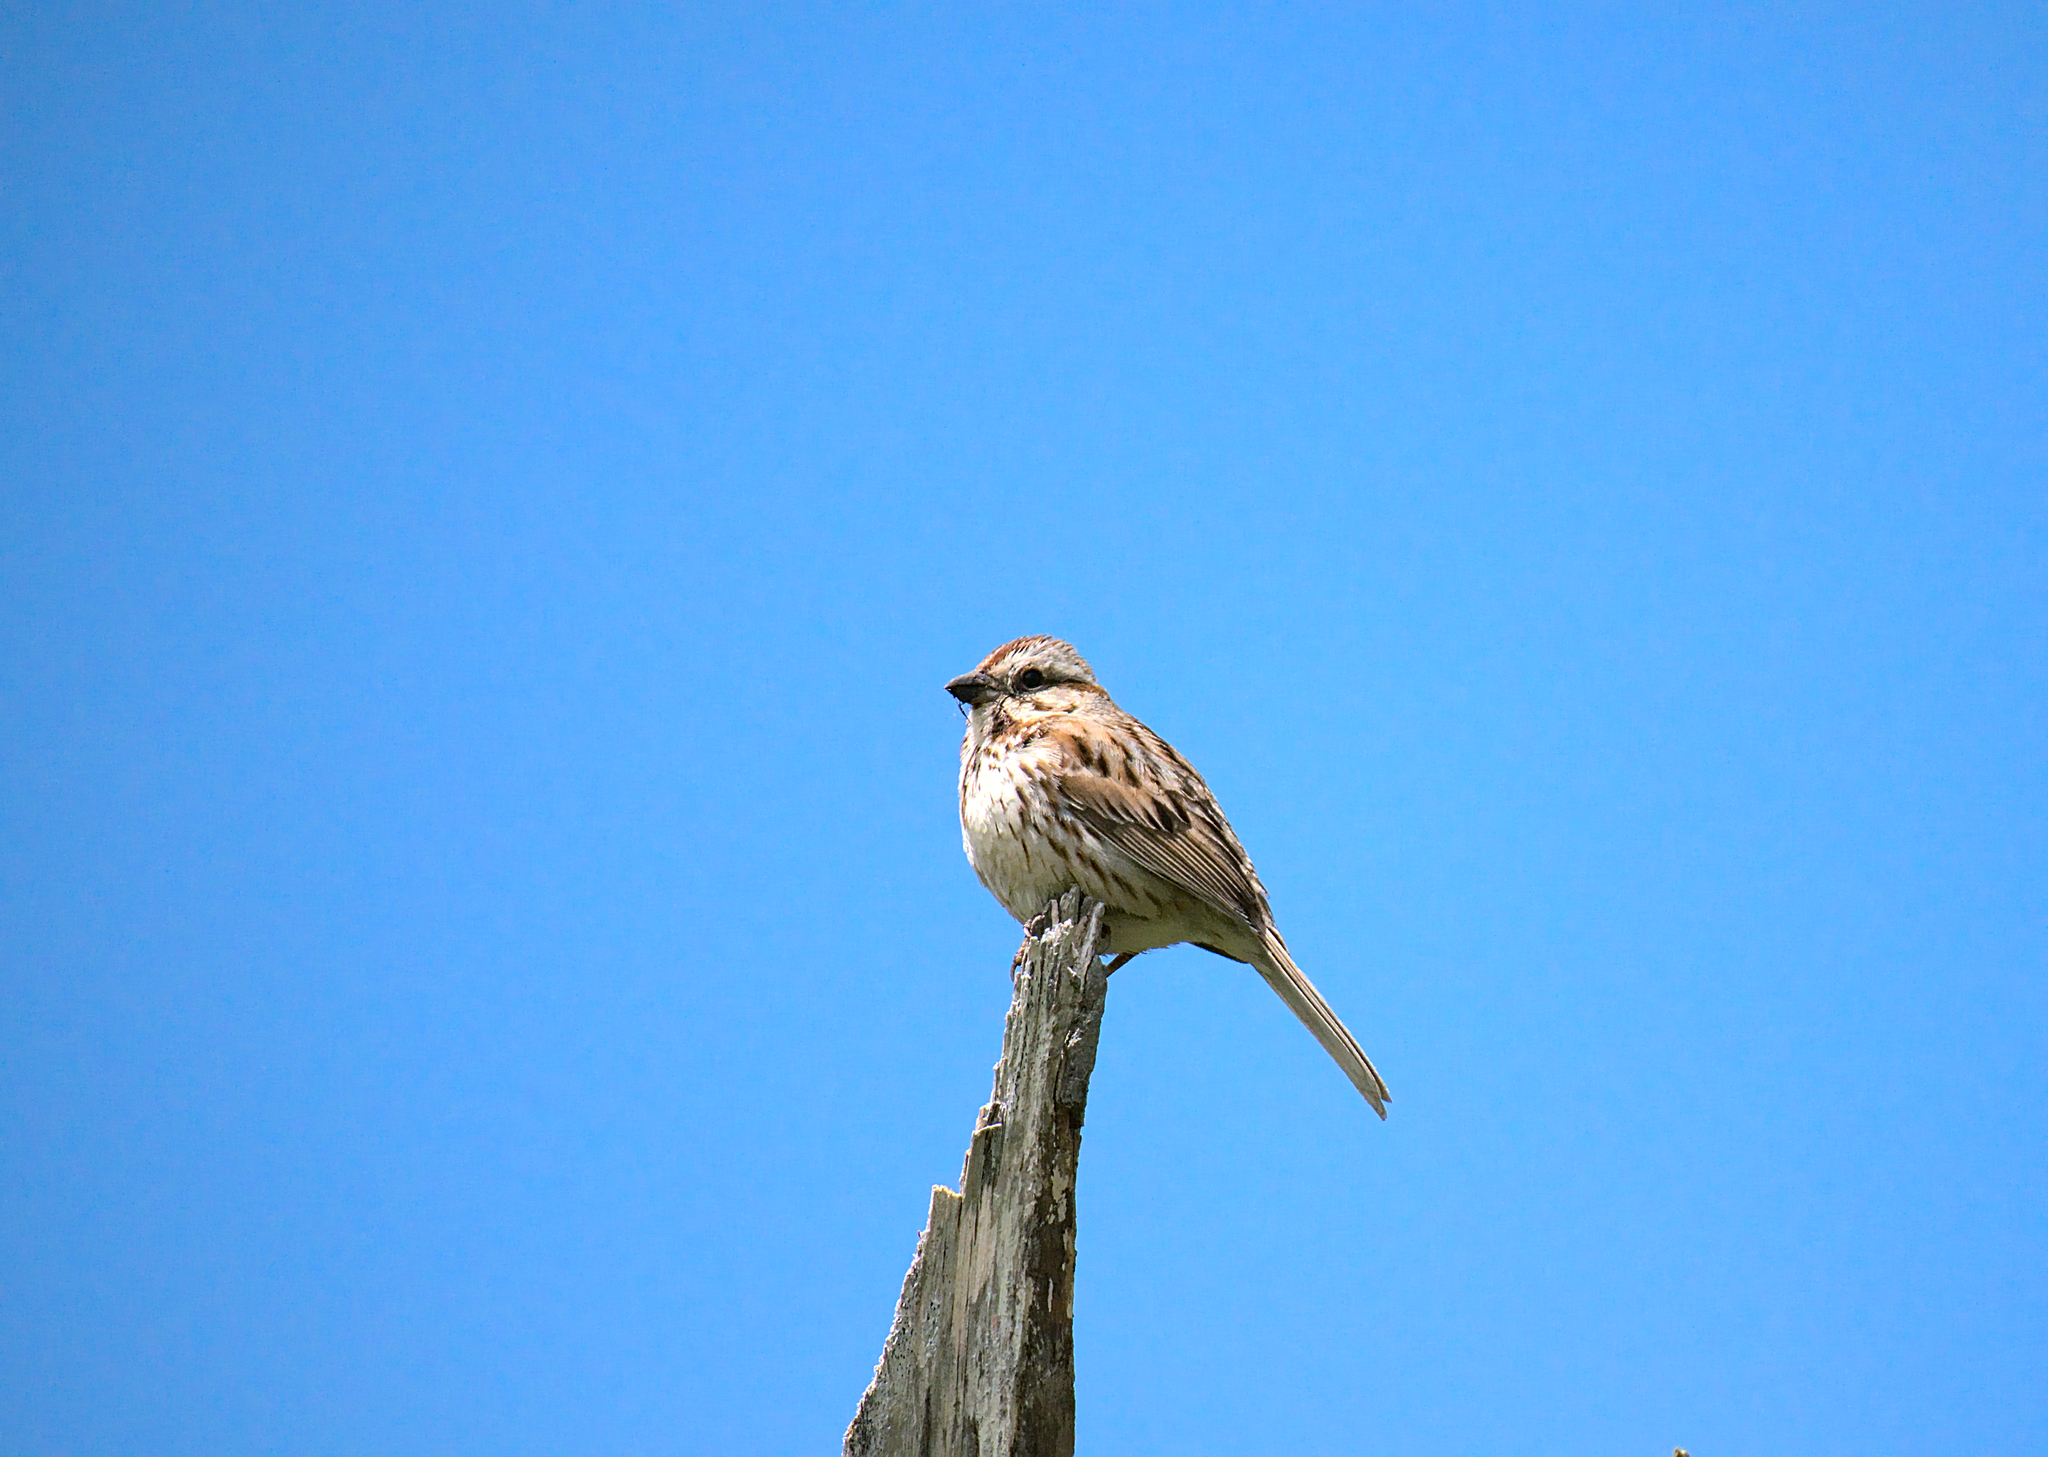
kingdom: Animalia
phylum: Chordata
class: Aves
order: Passeriformes
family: Passerellidae
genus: Melospiza
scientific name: Melospiza melodia
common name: Song sparrow
